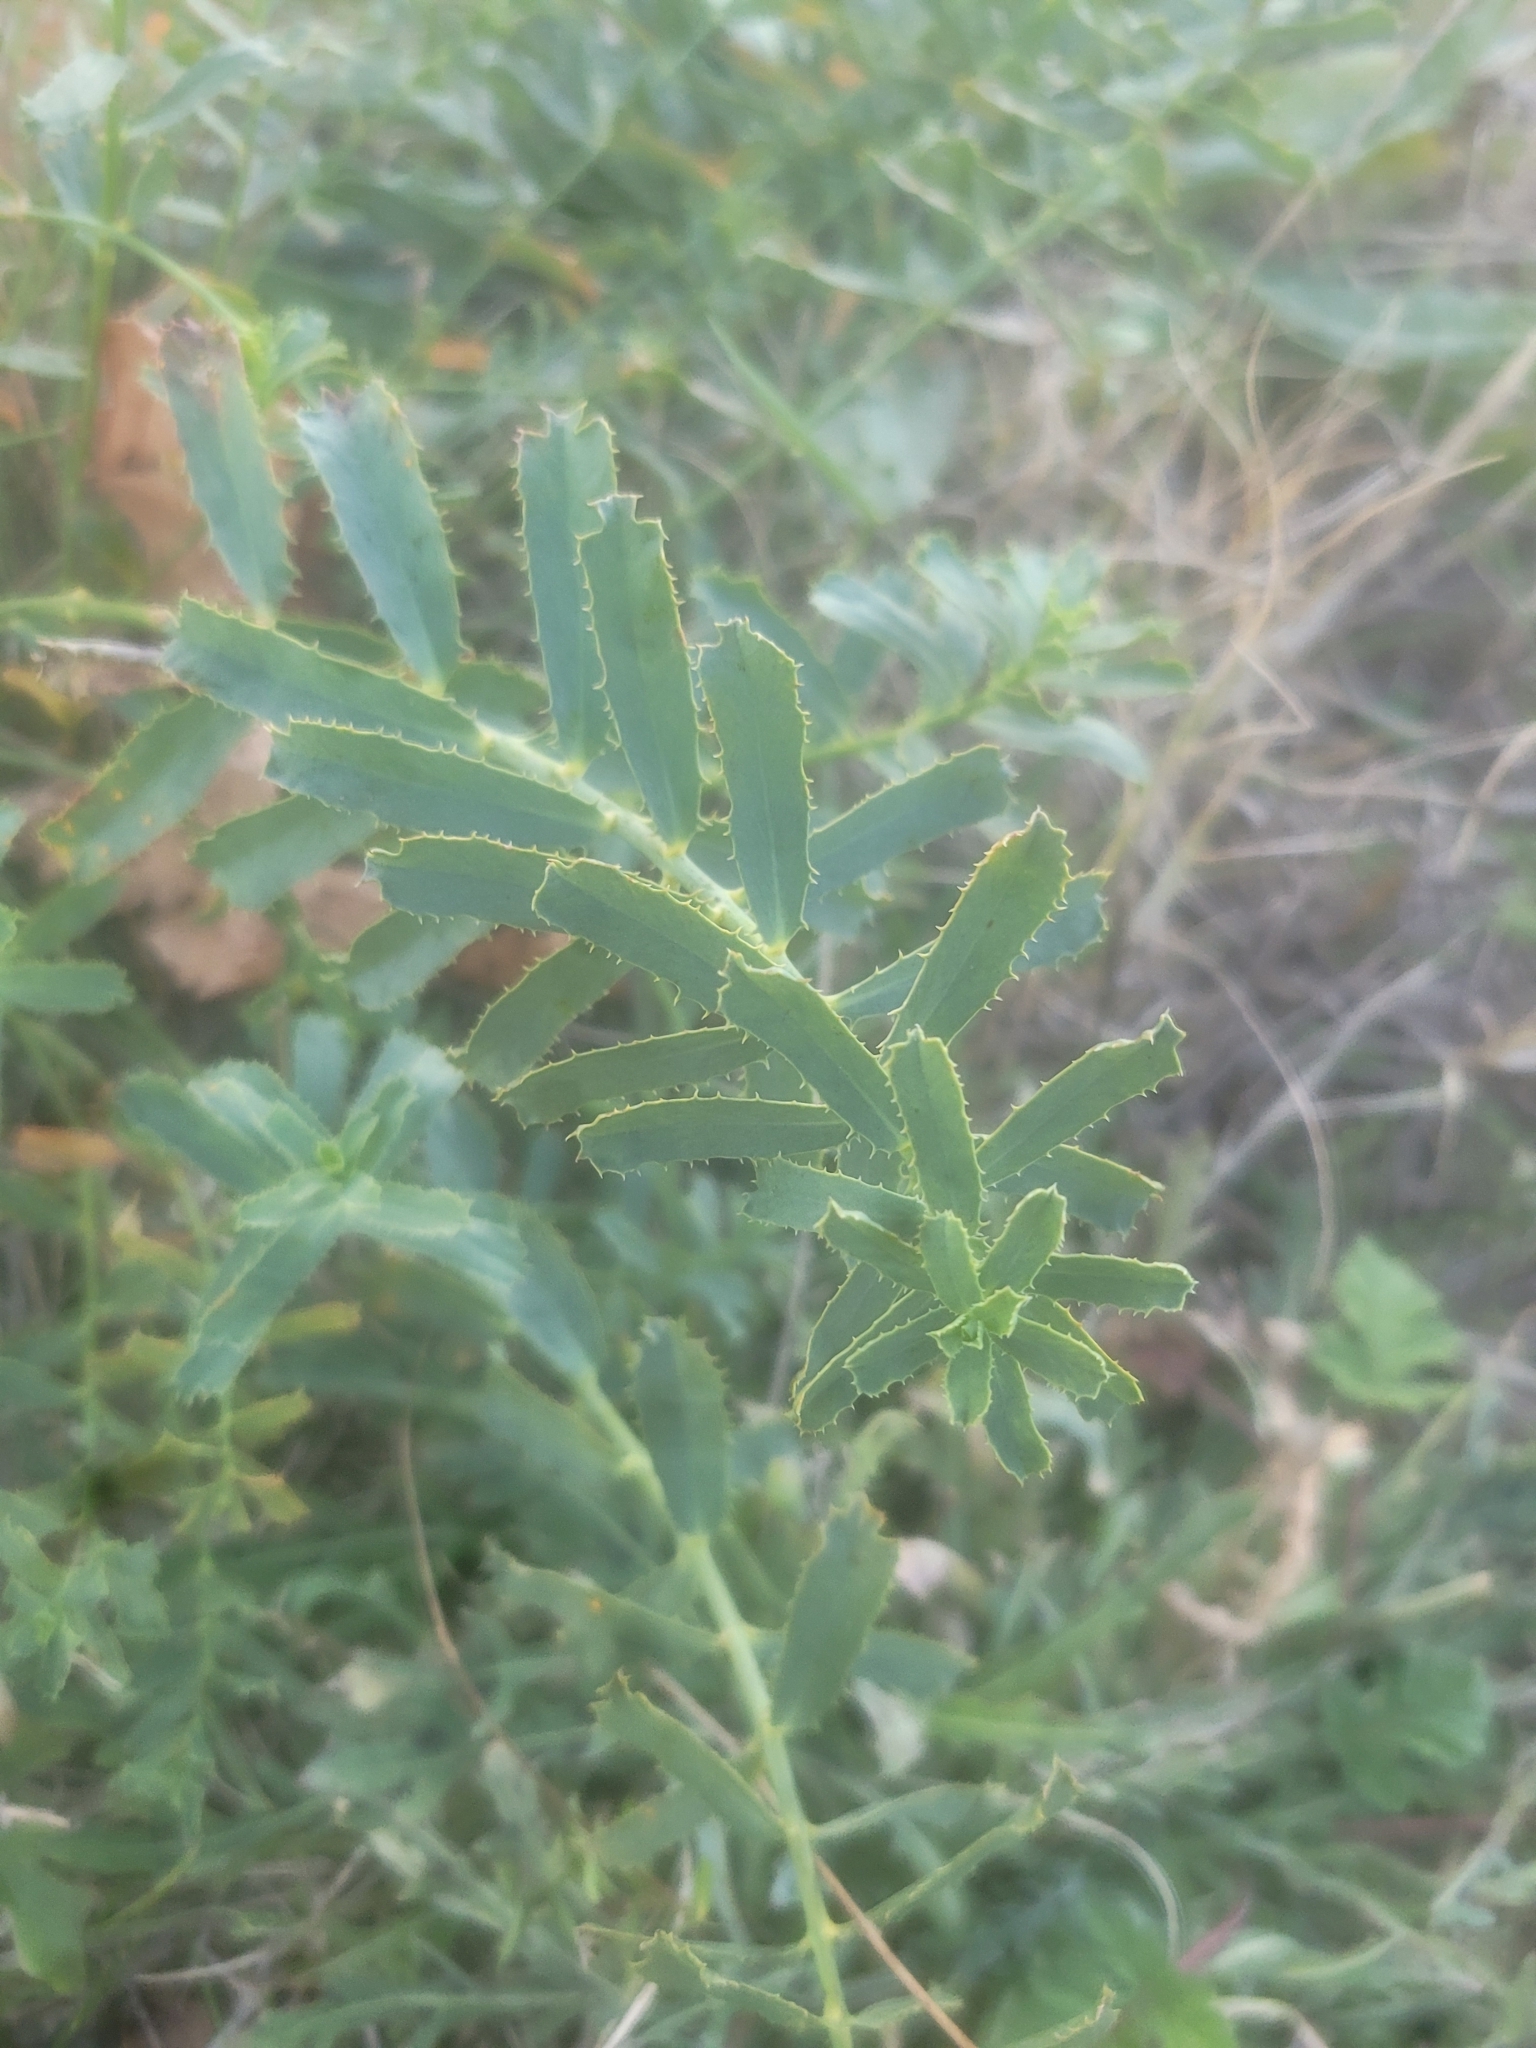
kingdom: Plantae
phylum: Tracheophyta
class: Magnoliopsida
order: Malpighiales
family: Euphorbiaceae
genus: Euphorbia
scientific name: Euphorbia serrata
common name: Serrate spurge
